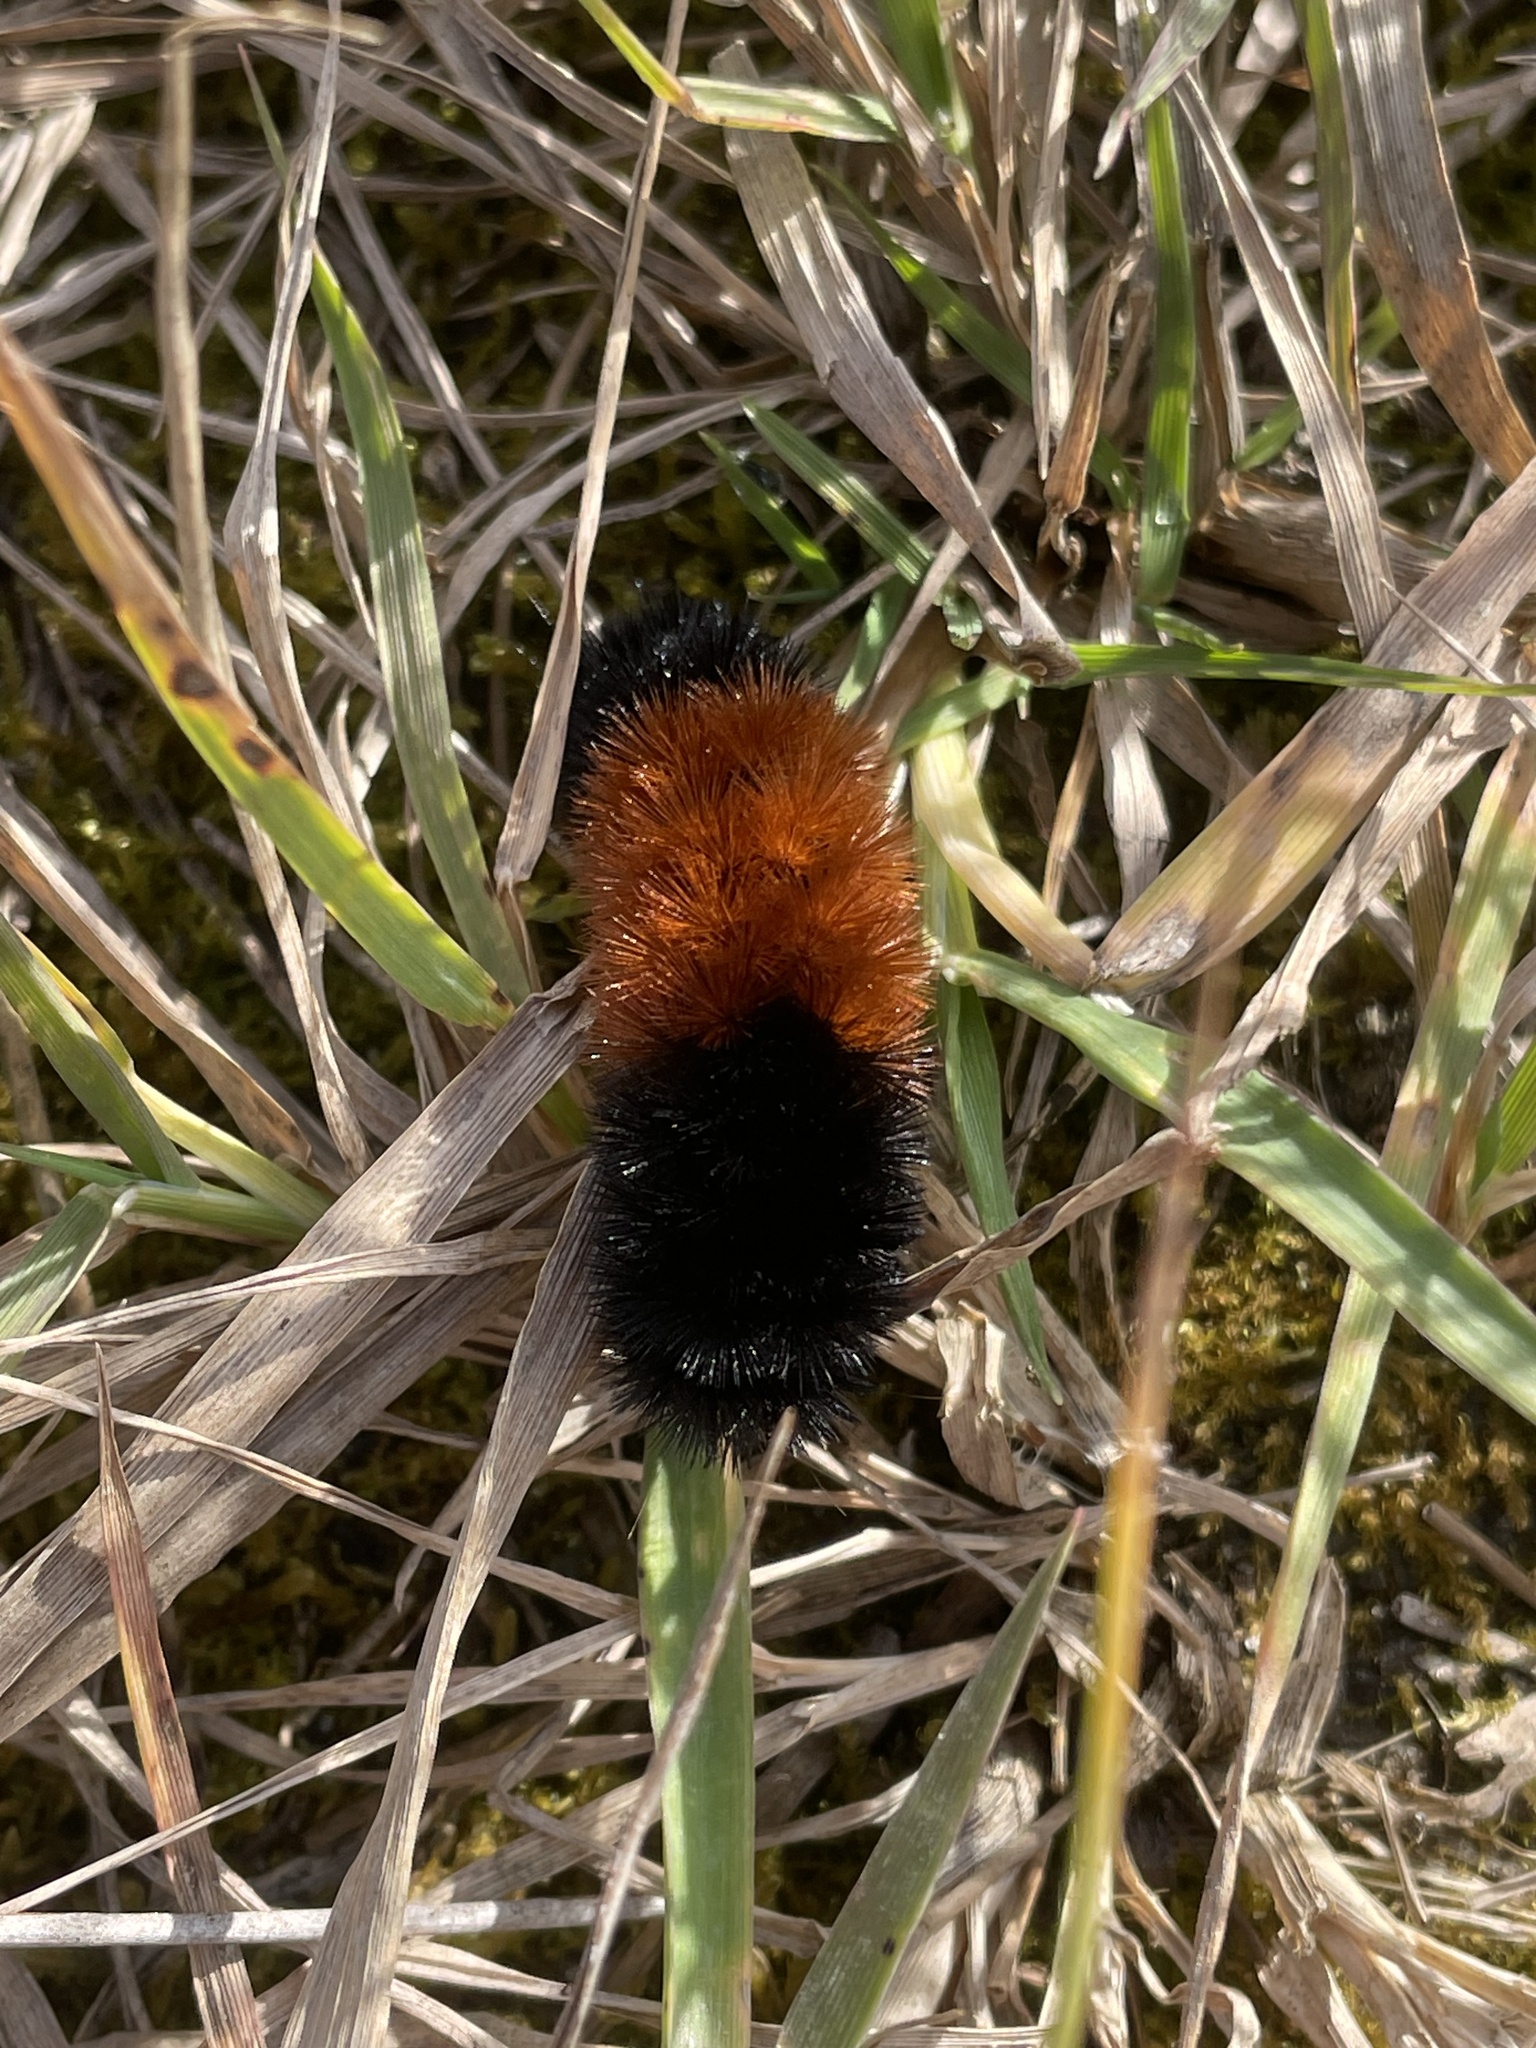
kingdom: Animalia
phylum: Arthropoda
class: Insecta
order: Lepidoptera
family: Erebidae
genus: Pyrrharctia
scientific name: Pyrrharctia isabella
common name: Isabella tiger moth
